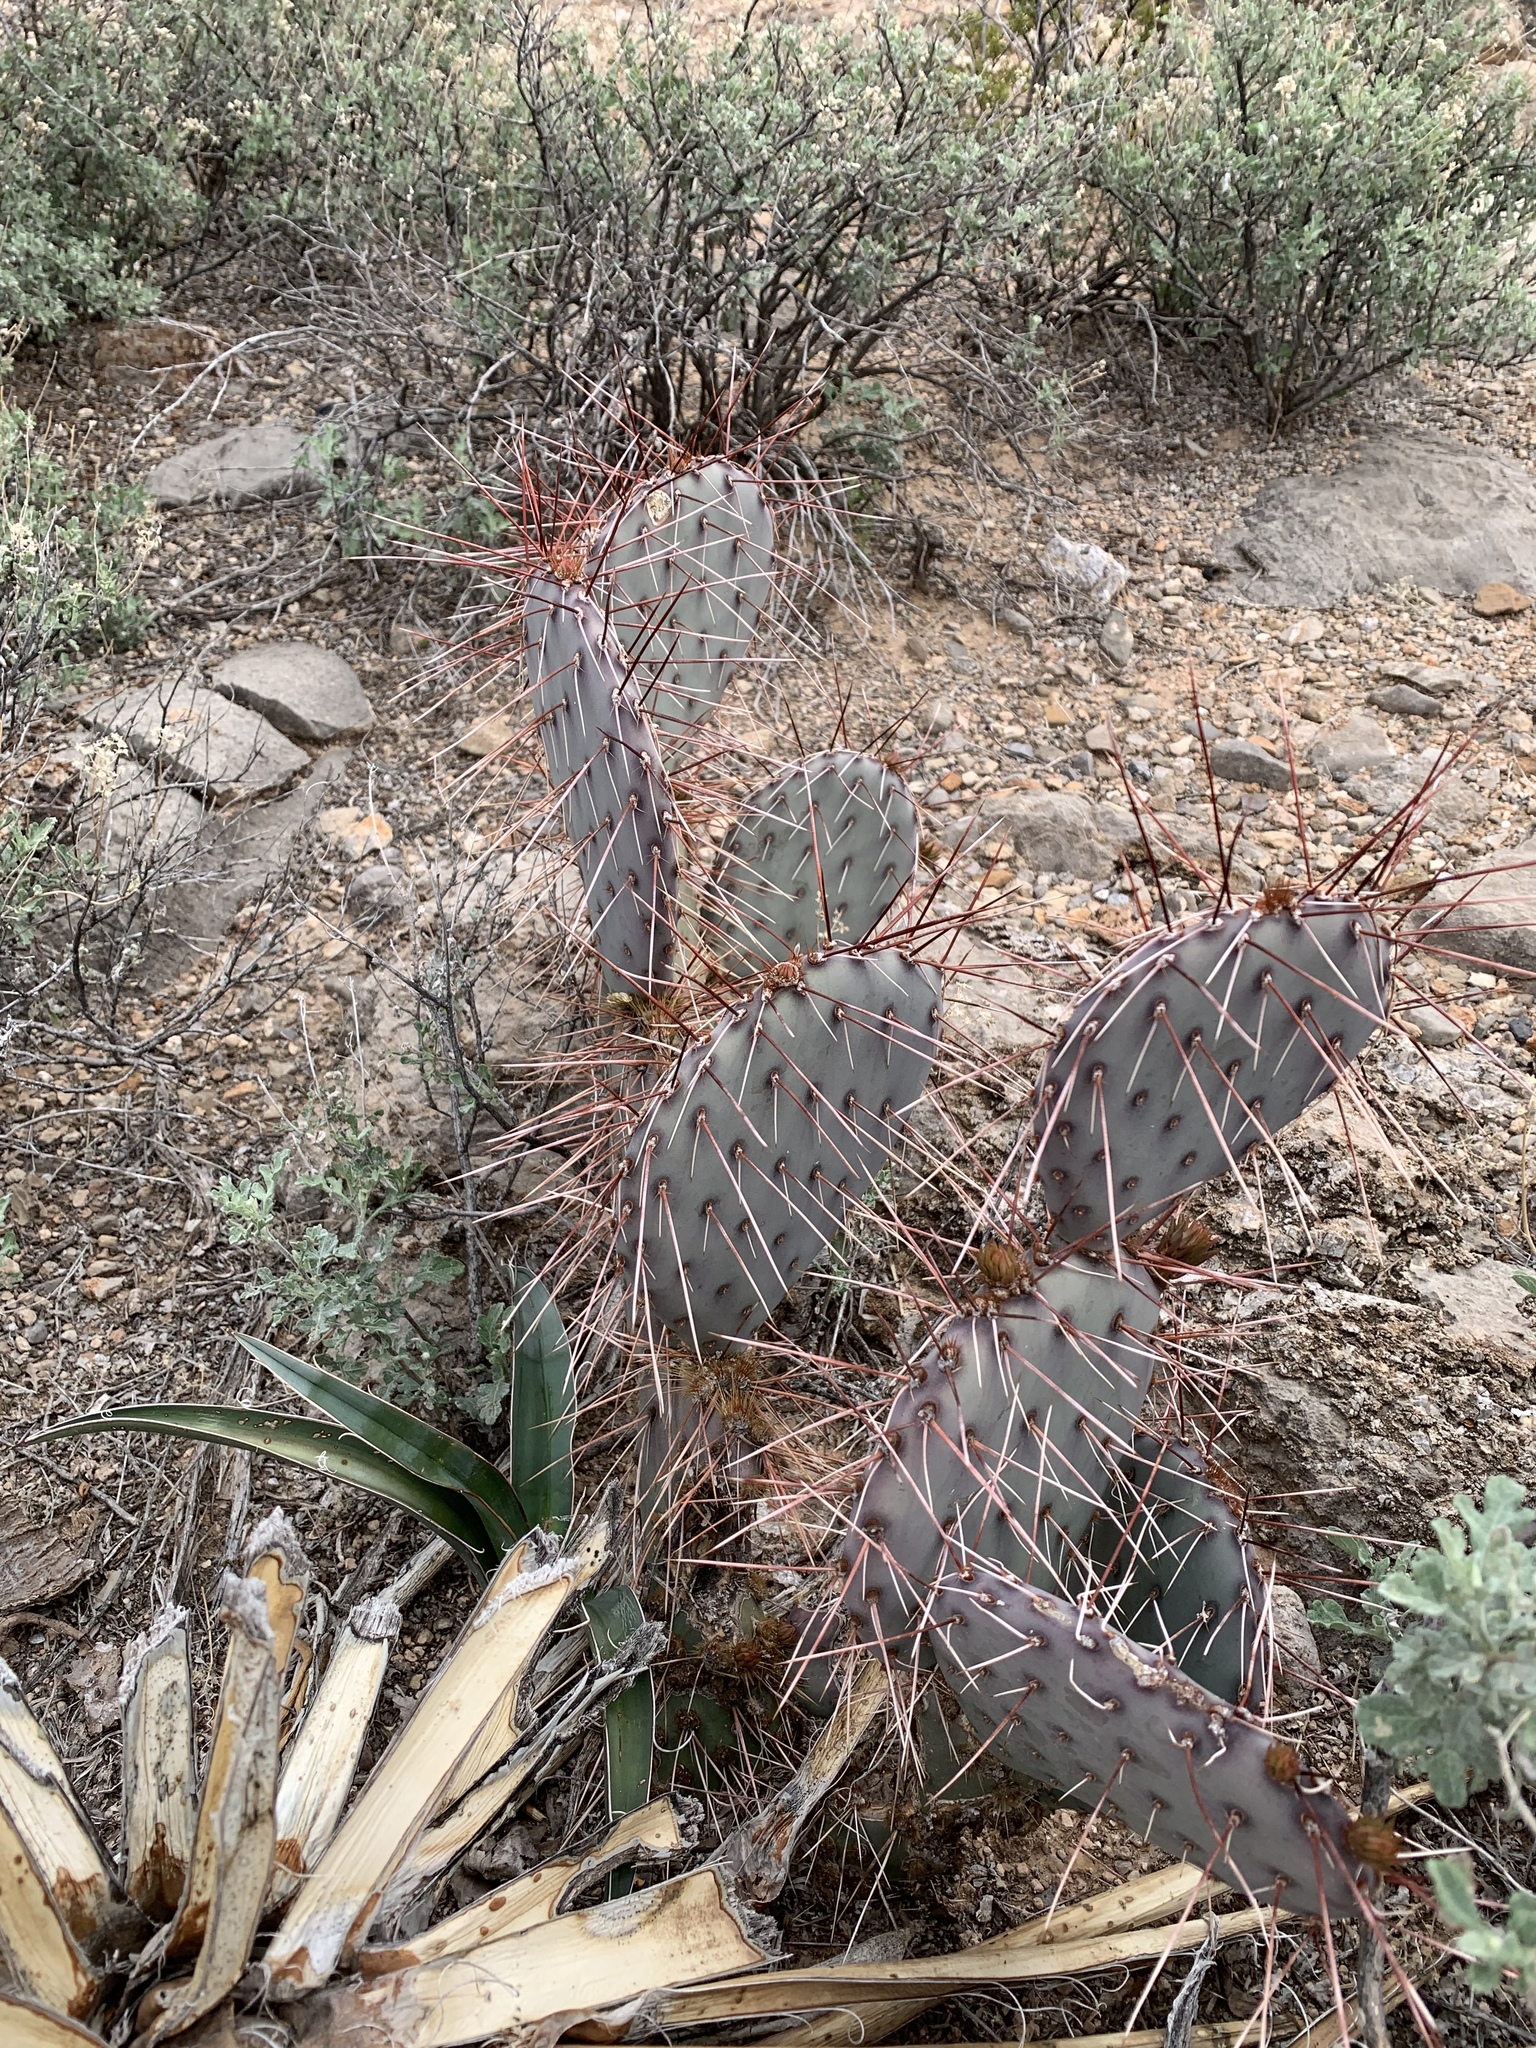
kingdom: Plantae
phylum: Tracheophyta
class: Magnoliopsida
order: Caryophyllales
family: Cactaceae
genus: Opuntia
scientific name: Opuntia macrocentra
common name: Purple prickly-pear
